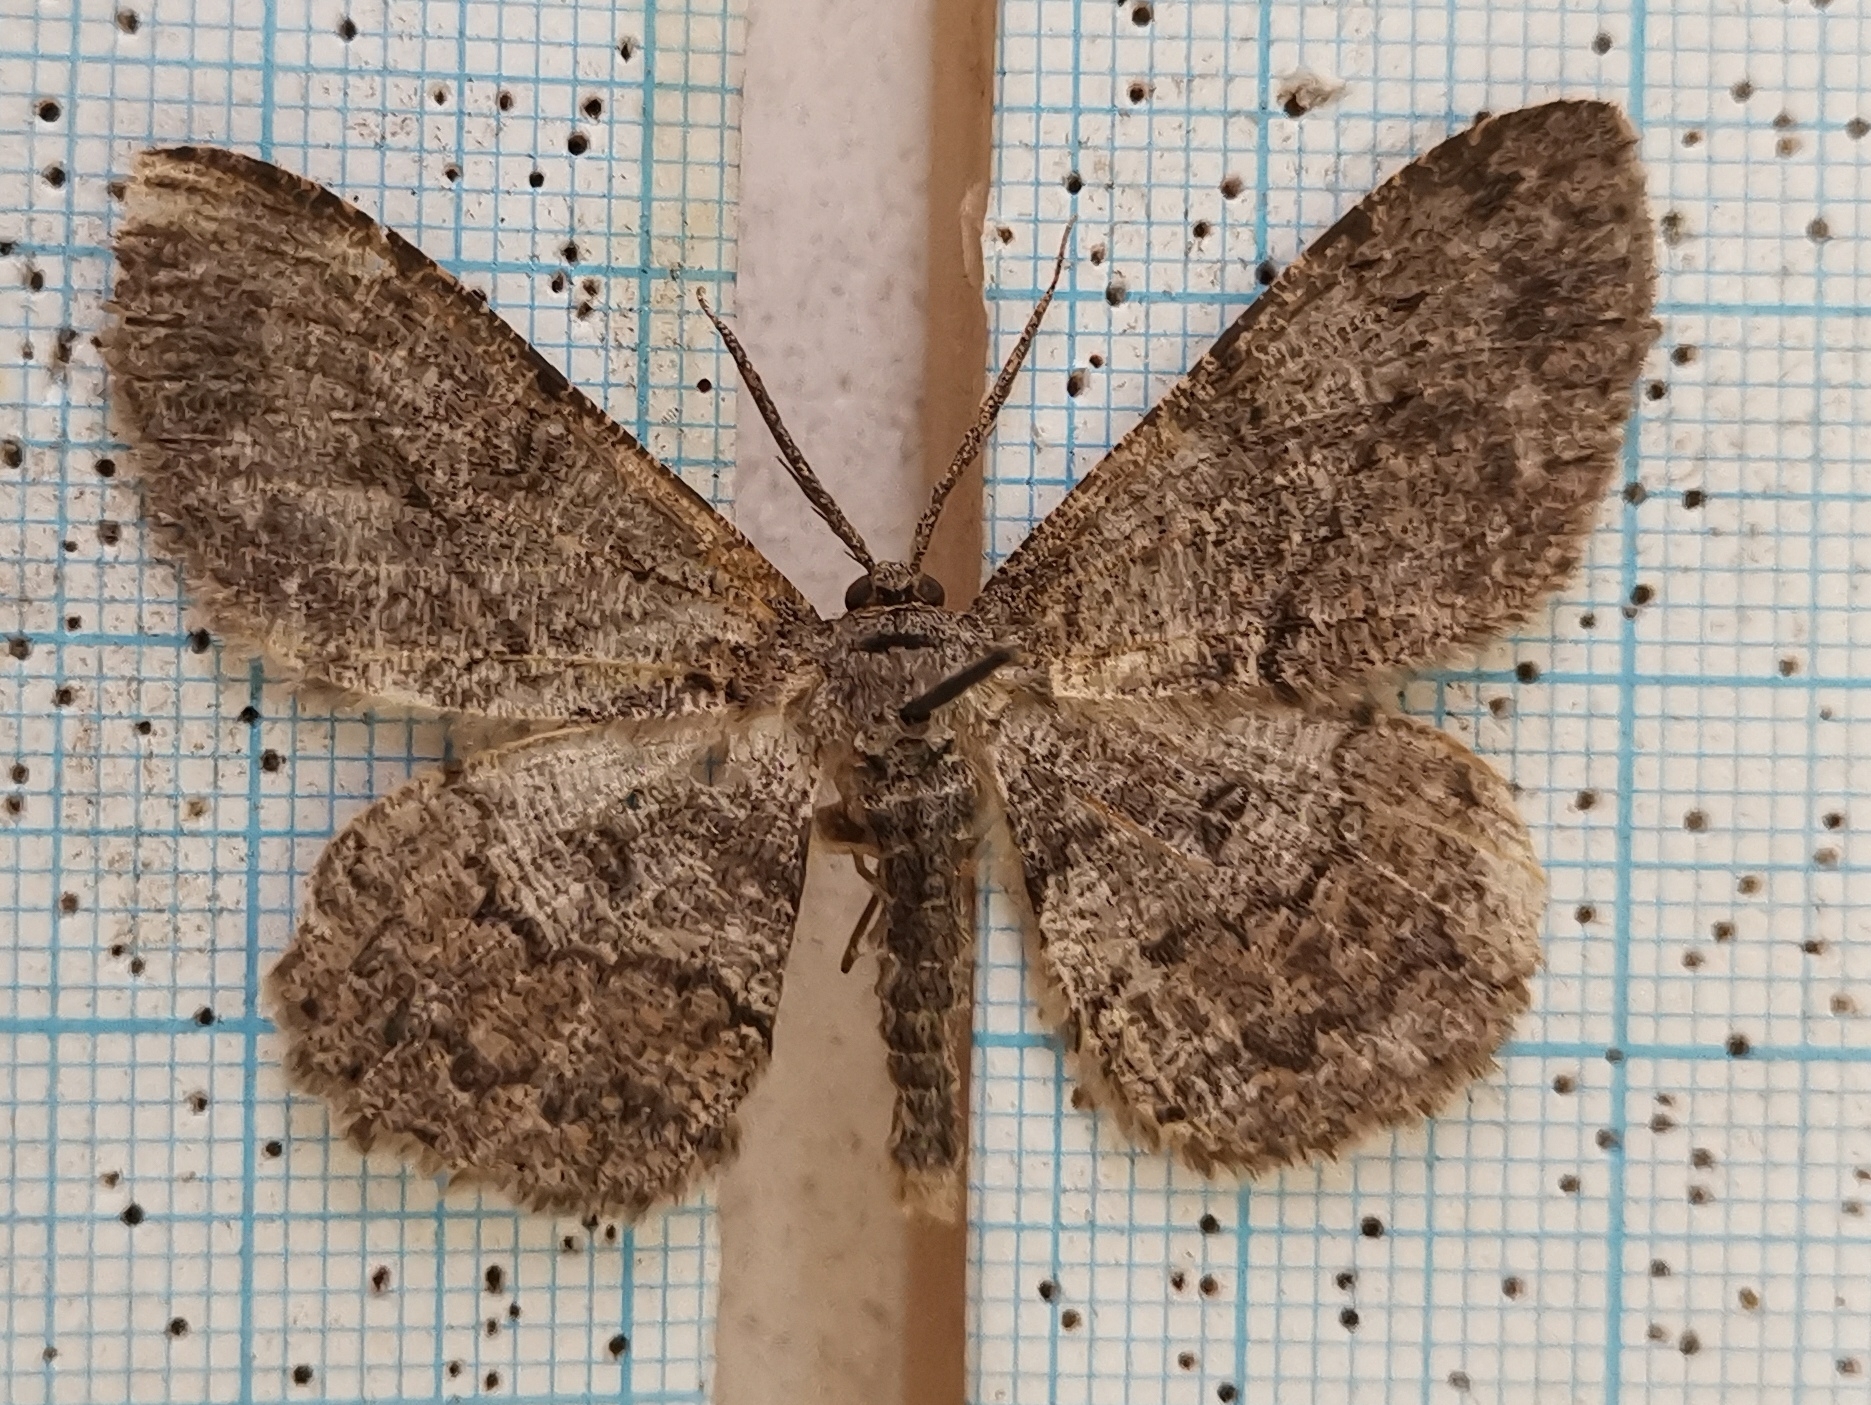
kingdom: Animalia
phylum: Arthropoda
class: Insecta
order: Lepidoptera
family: Geometridae
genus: Hypomecis
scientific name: Hypomecis punctinalis
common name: Pale oak beauty
